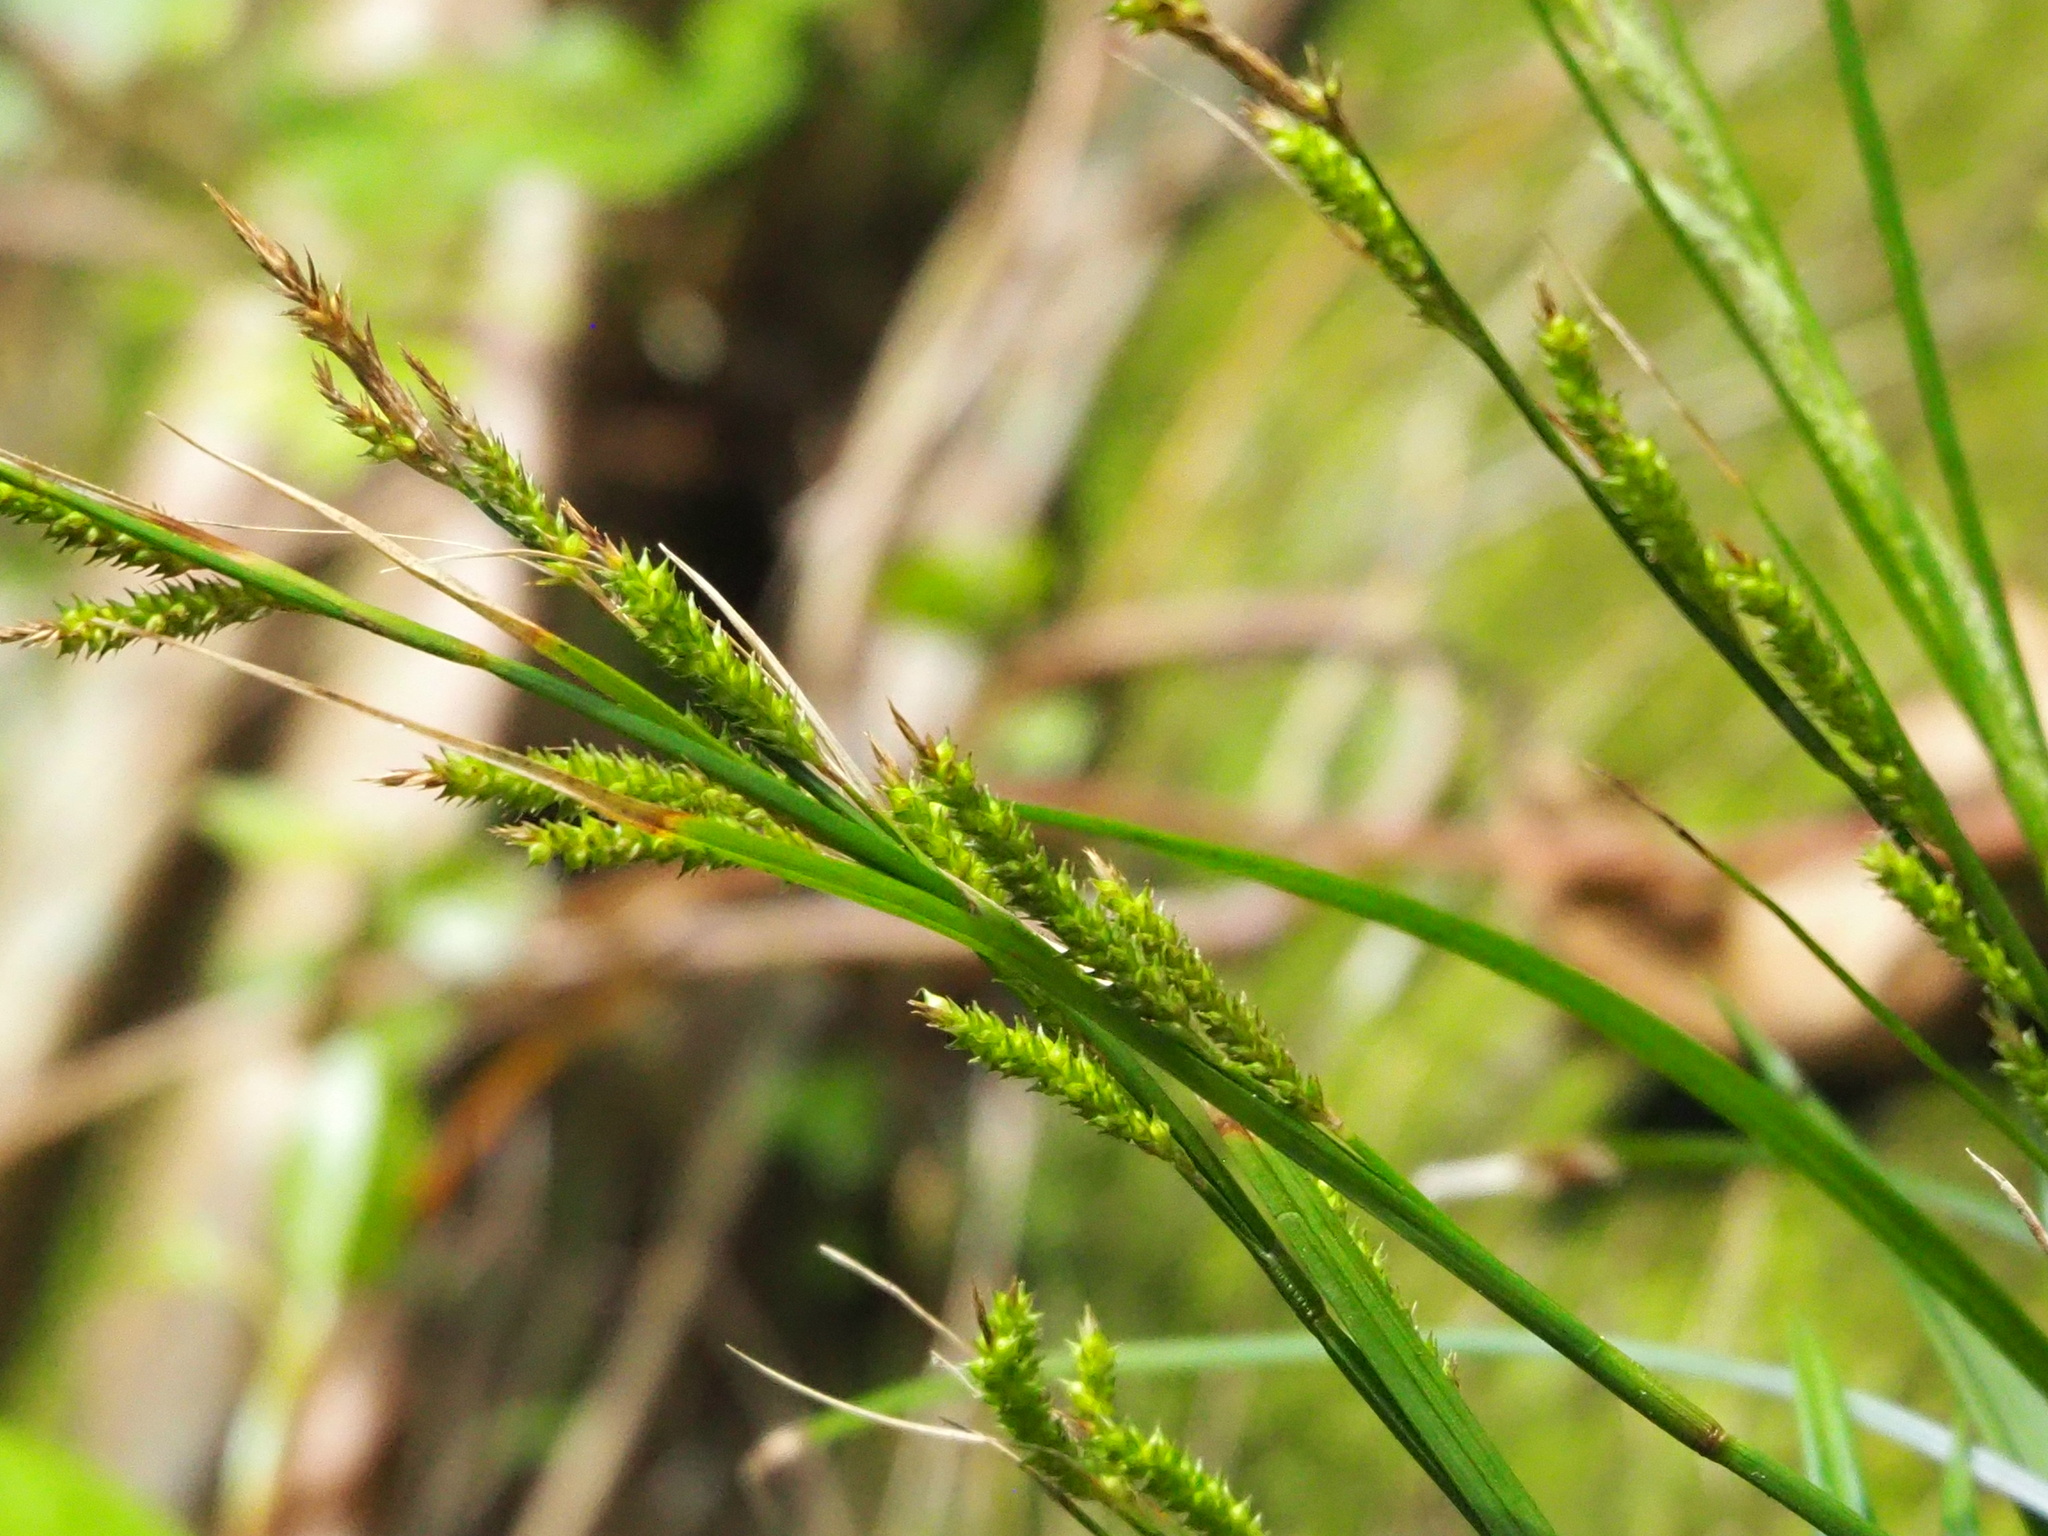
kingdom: Plantae
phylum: Tracheophyta
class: Liliopsida
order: Poales
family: Cyperaceae
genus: Carex
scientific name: Carex sociata
